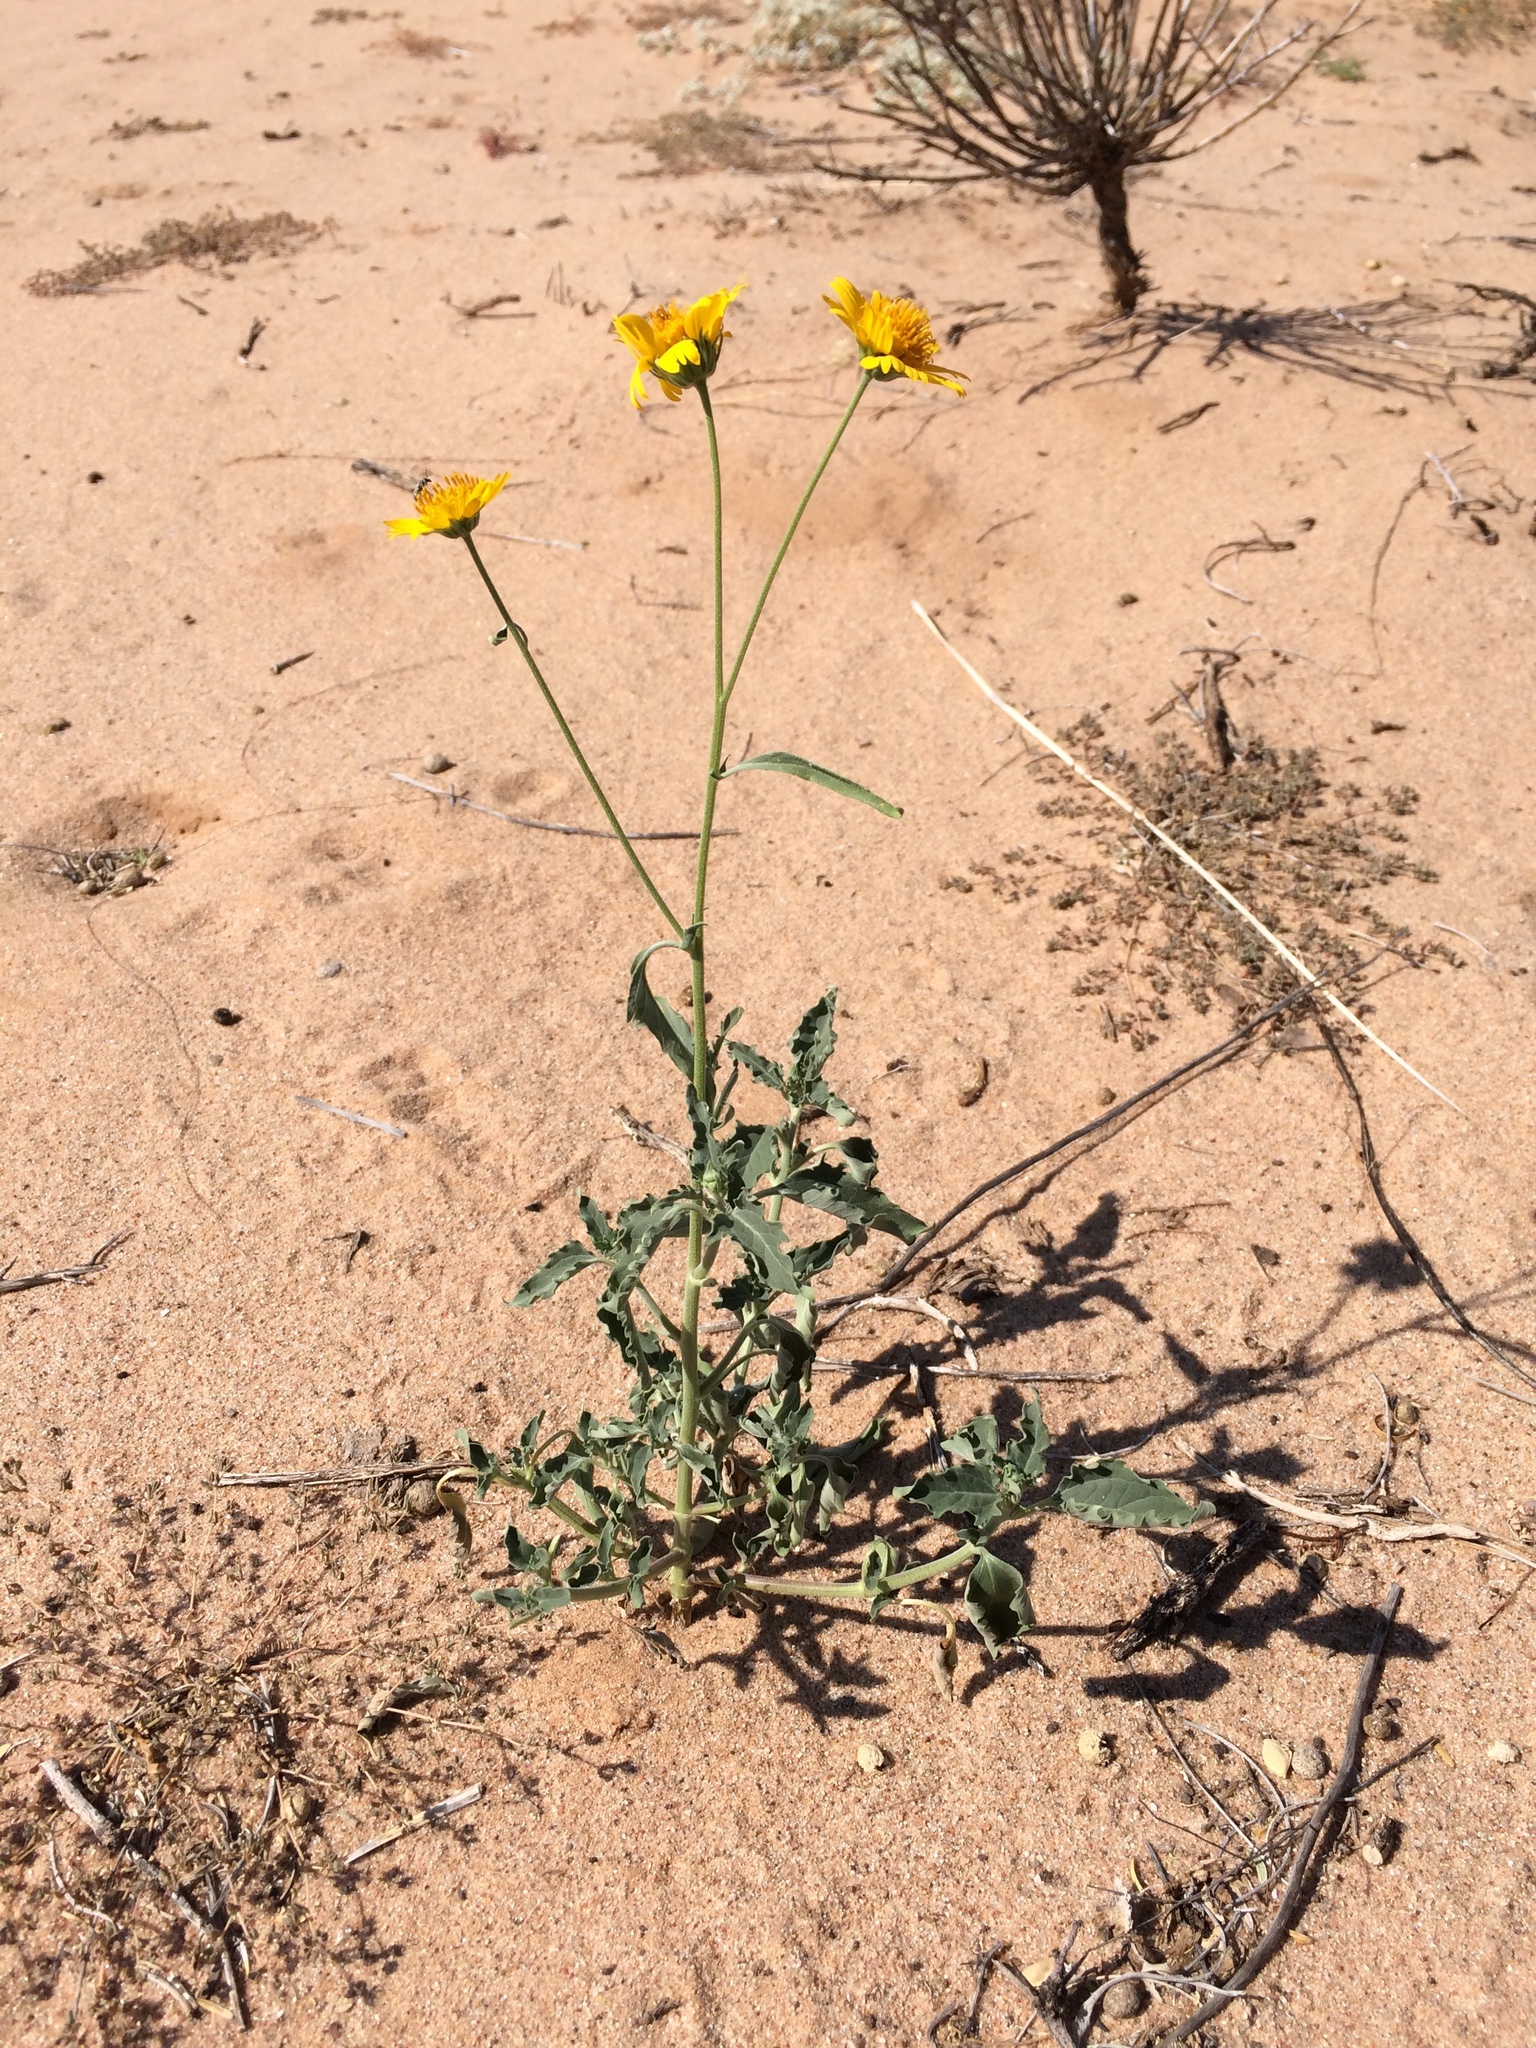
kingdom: Plantae
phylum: Tracheophyta
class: Magnoliopsida
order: Asterales
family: Asteraceae
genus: Verbesina
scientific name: Verbesina encelioides
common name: Golden crownbeard
